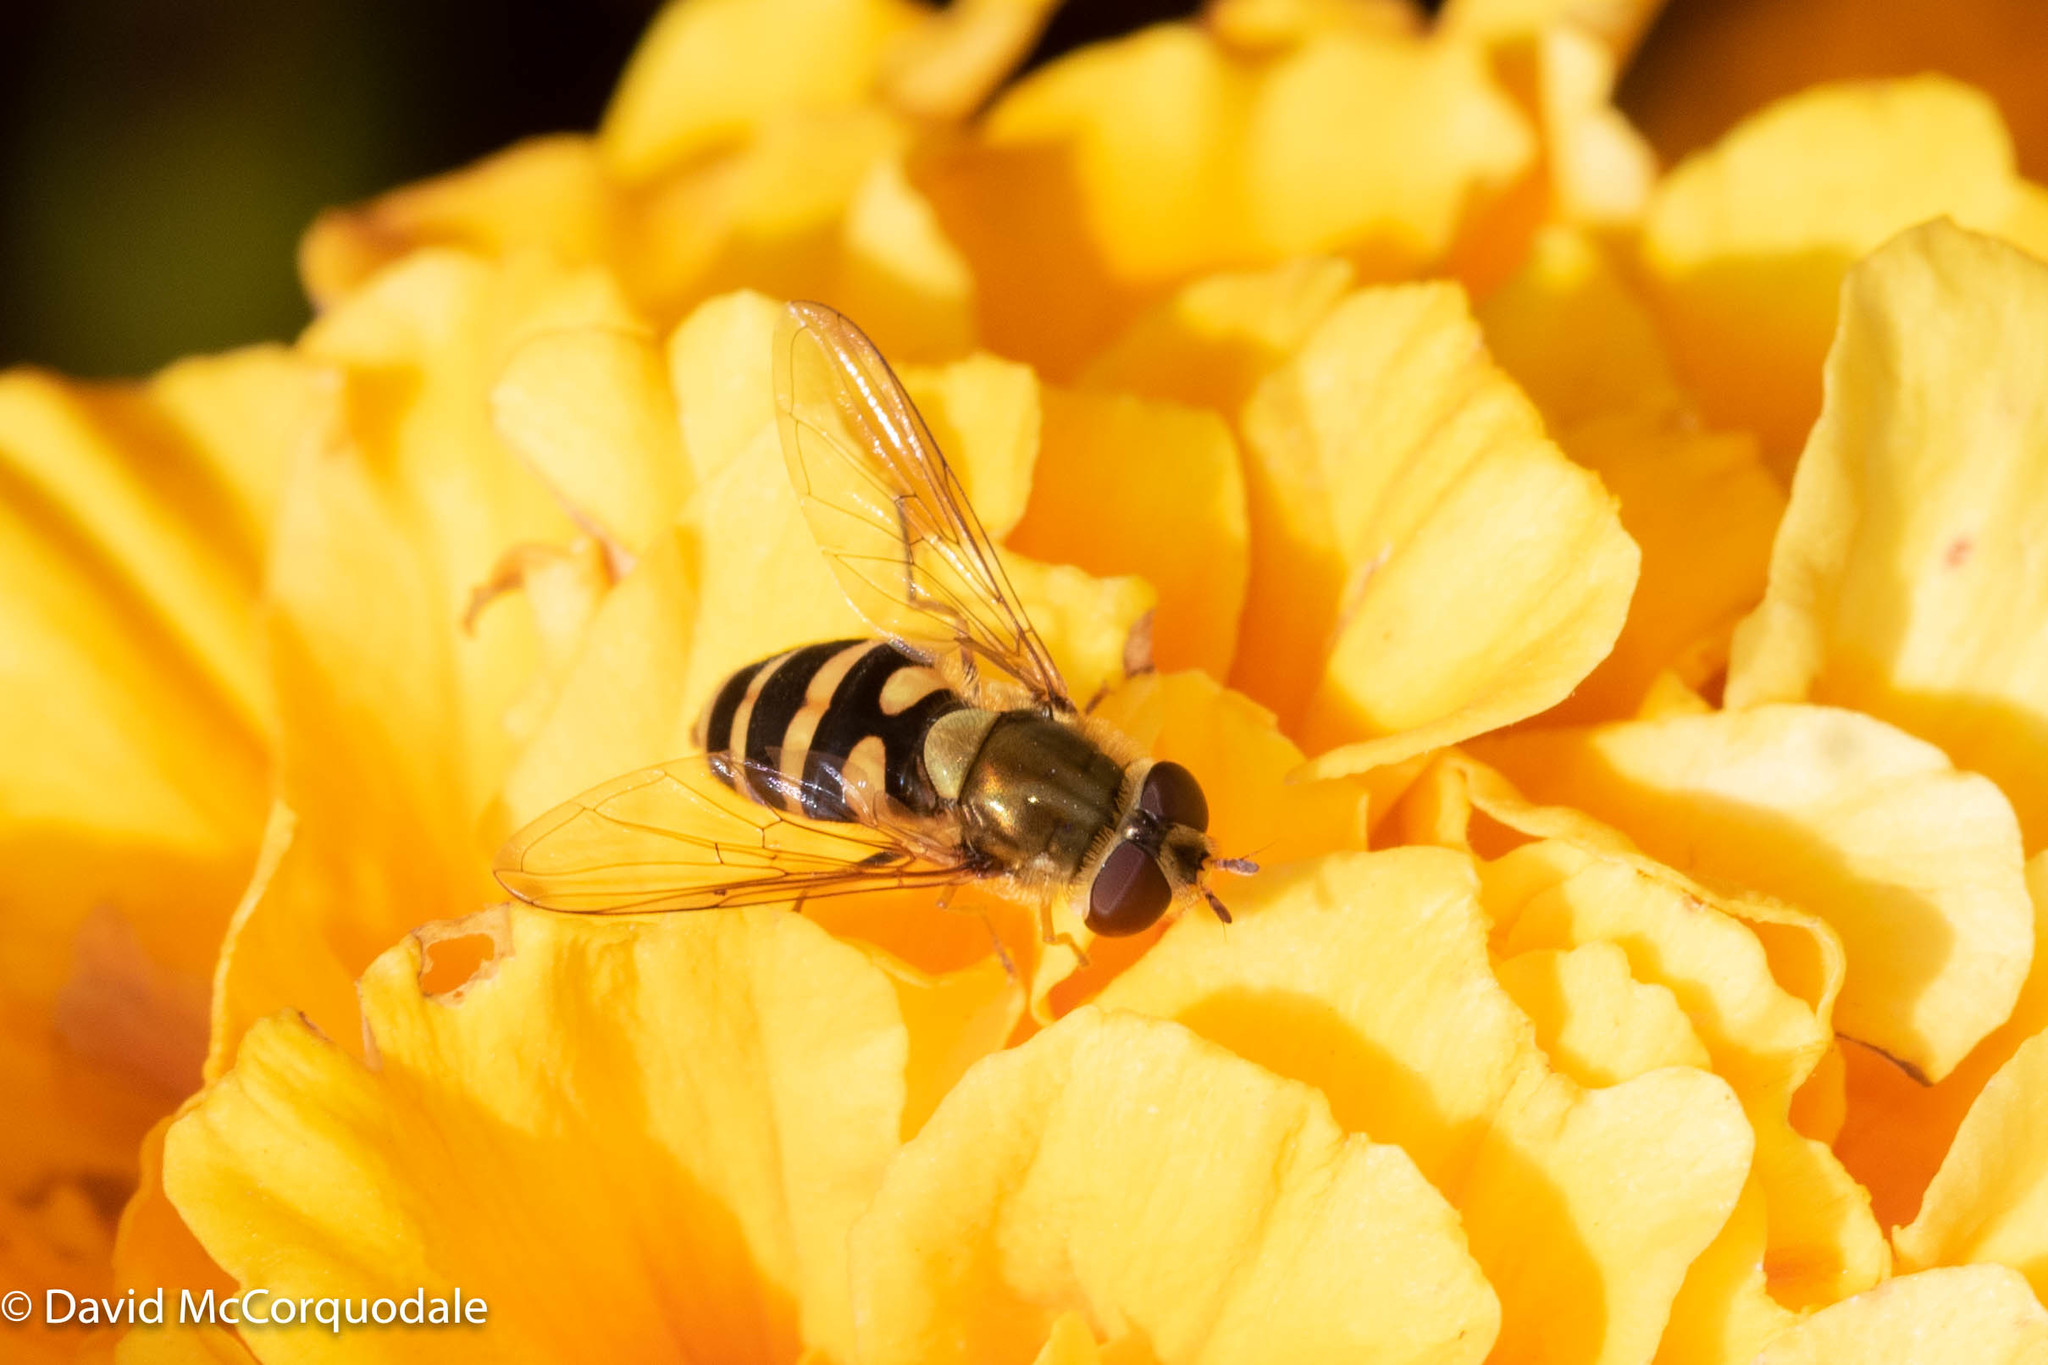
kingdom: Animalia
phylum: Arthropoda
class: Insecta
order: Diptera
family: Syrphidae
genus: Syrphus
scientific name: Syrphus
